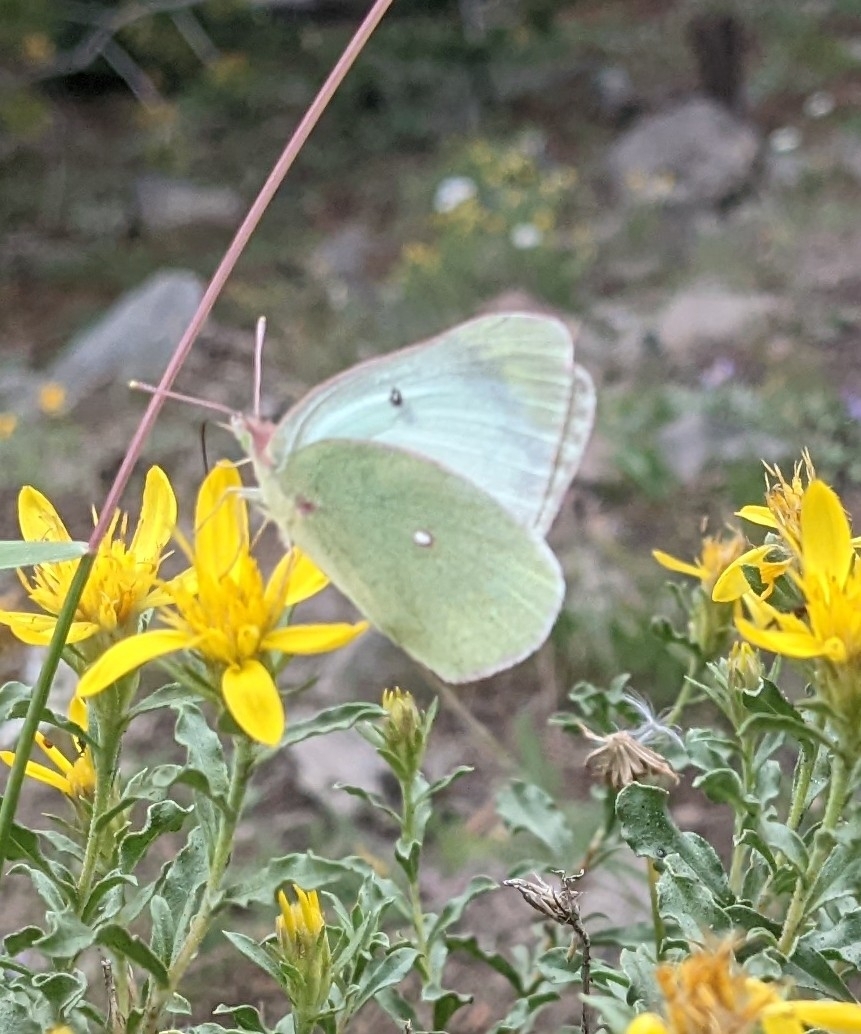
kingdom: Animalia
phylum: Arthropoda
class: Insecta
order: Lepidoptera
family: Pieridae
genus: Colias
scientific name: Colias alexandra
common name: Alexandra sulphur
